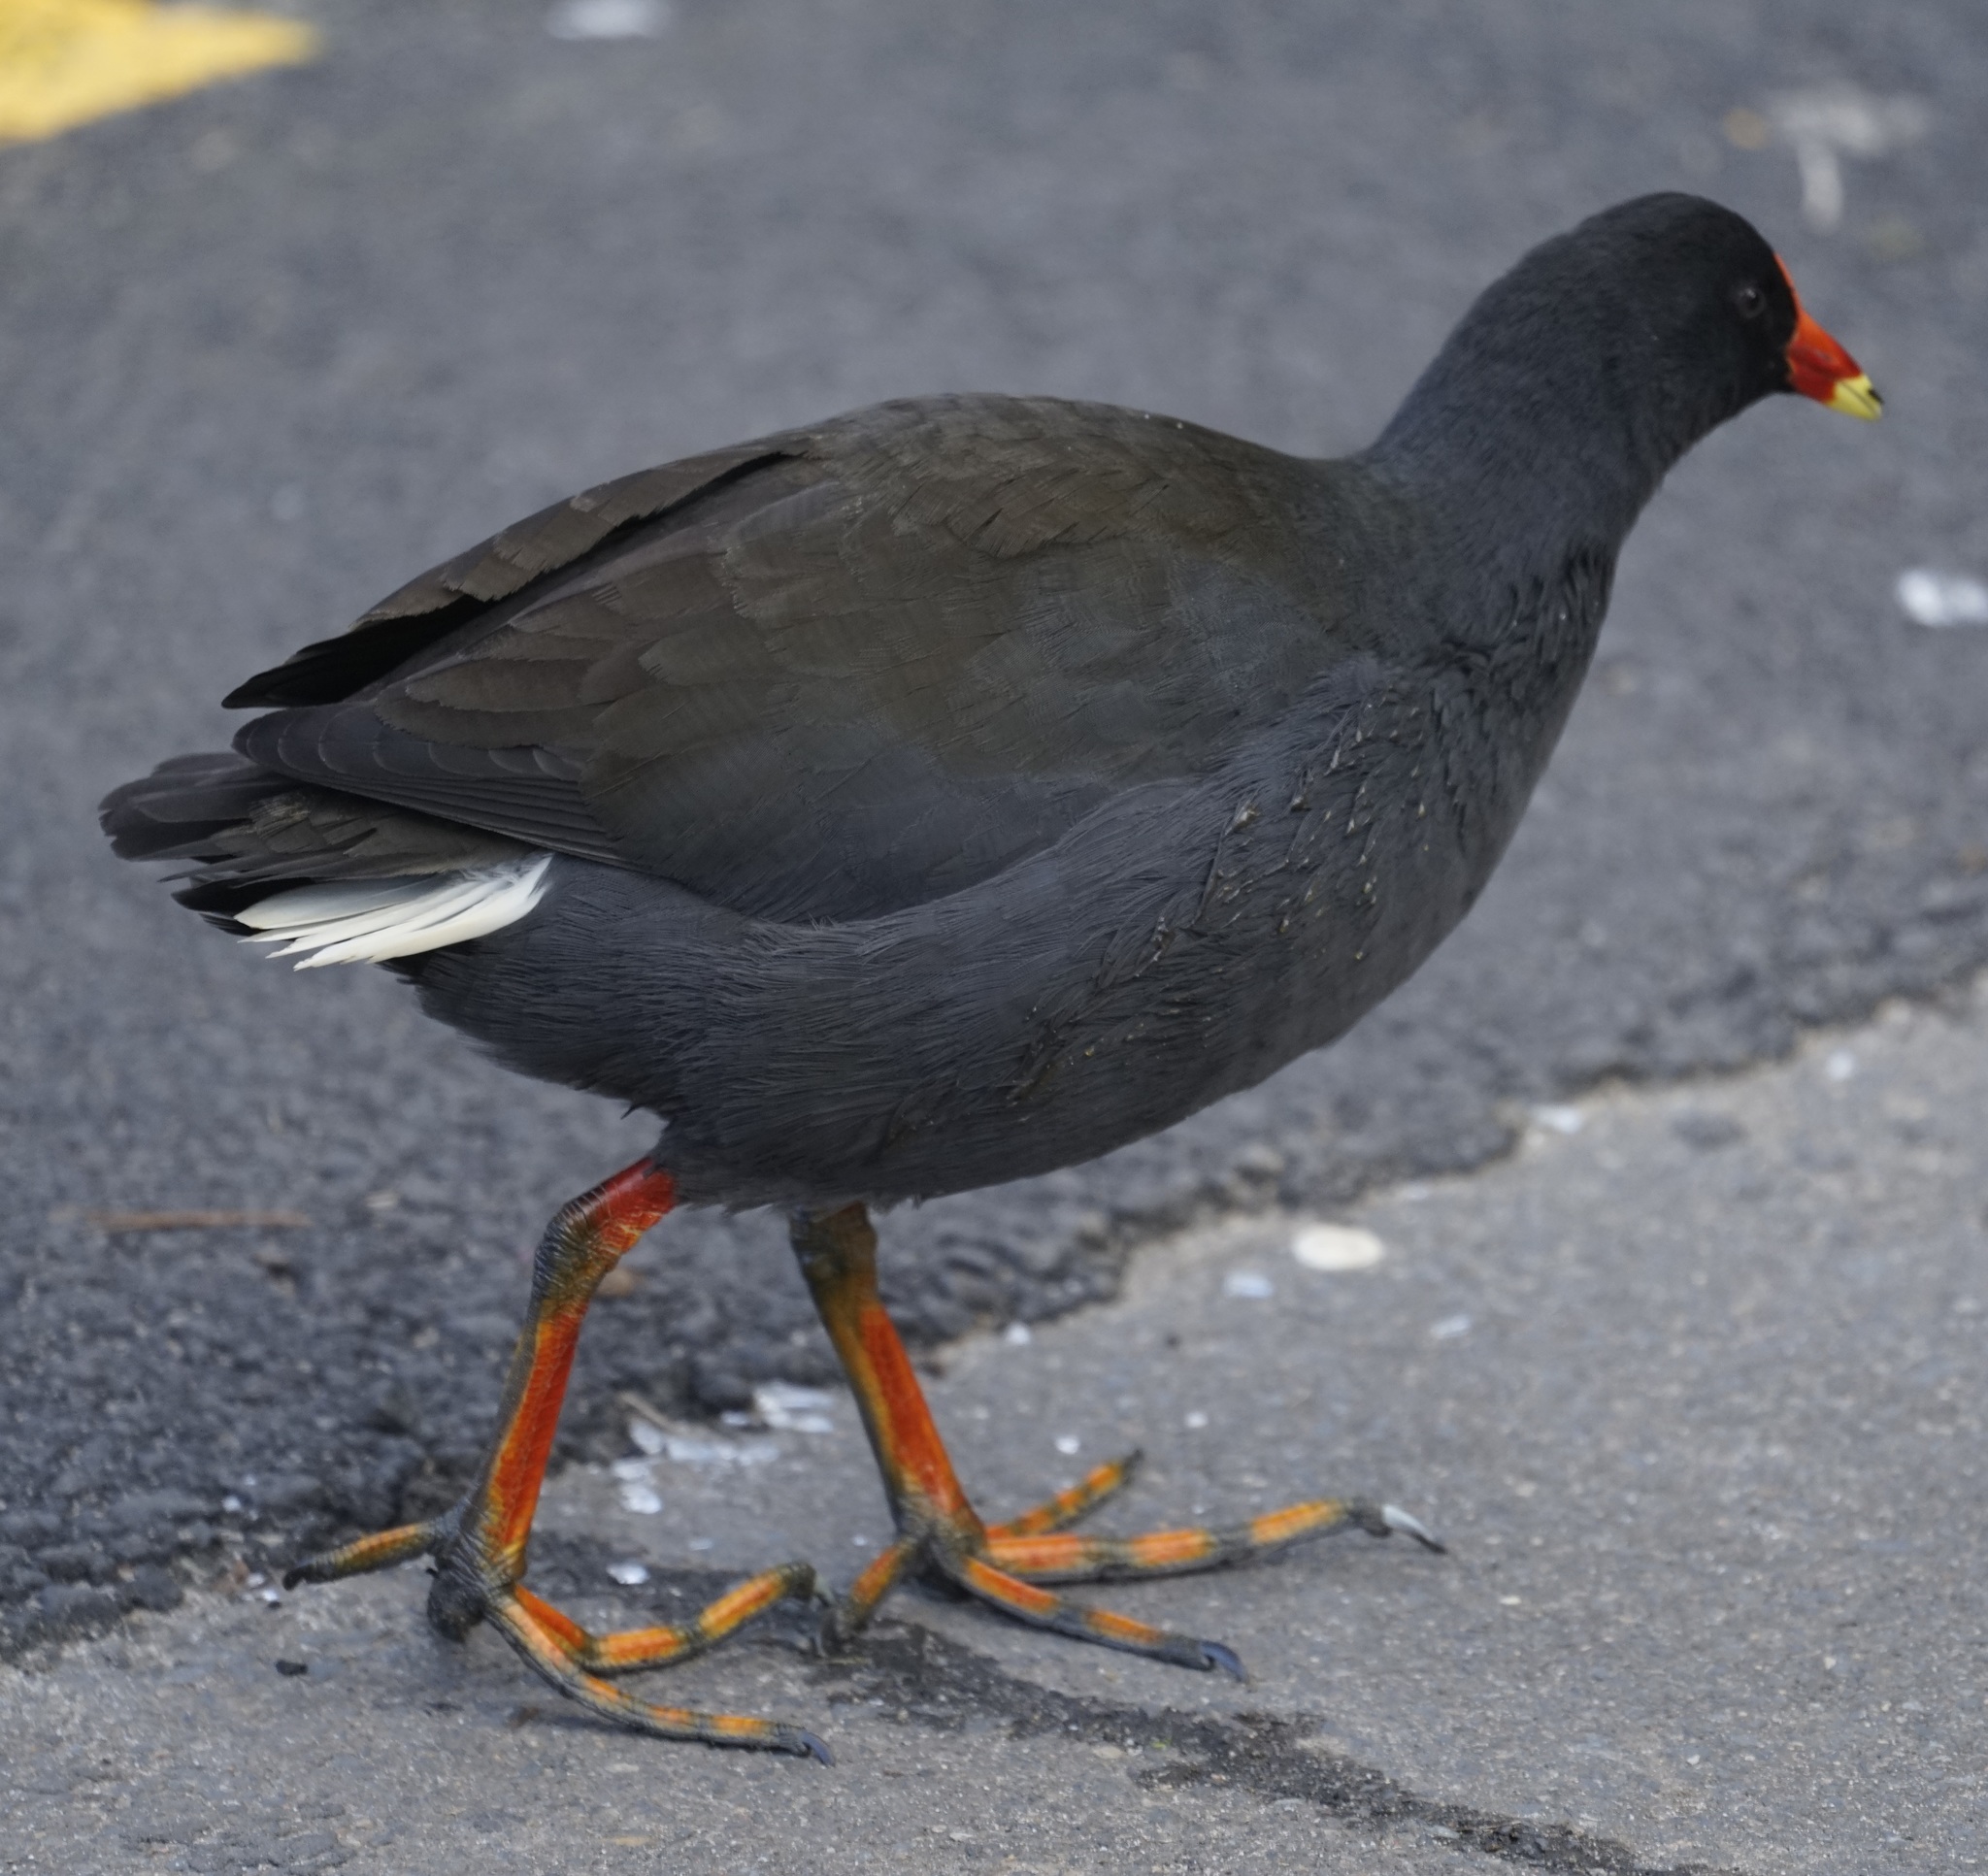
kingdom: Animalia
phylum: Chordata
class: Aves
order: Gruiformes
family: Rallidae
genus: Gallinula
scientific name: Gallinula tenebrosa
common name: Dusky moorhen
